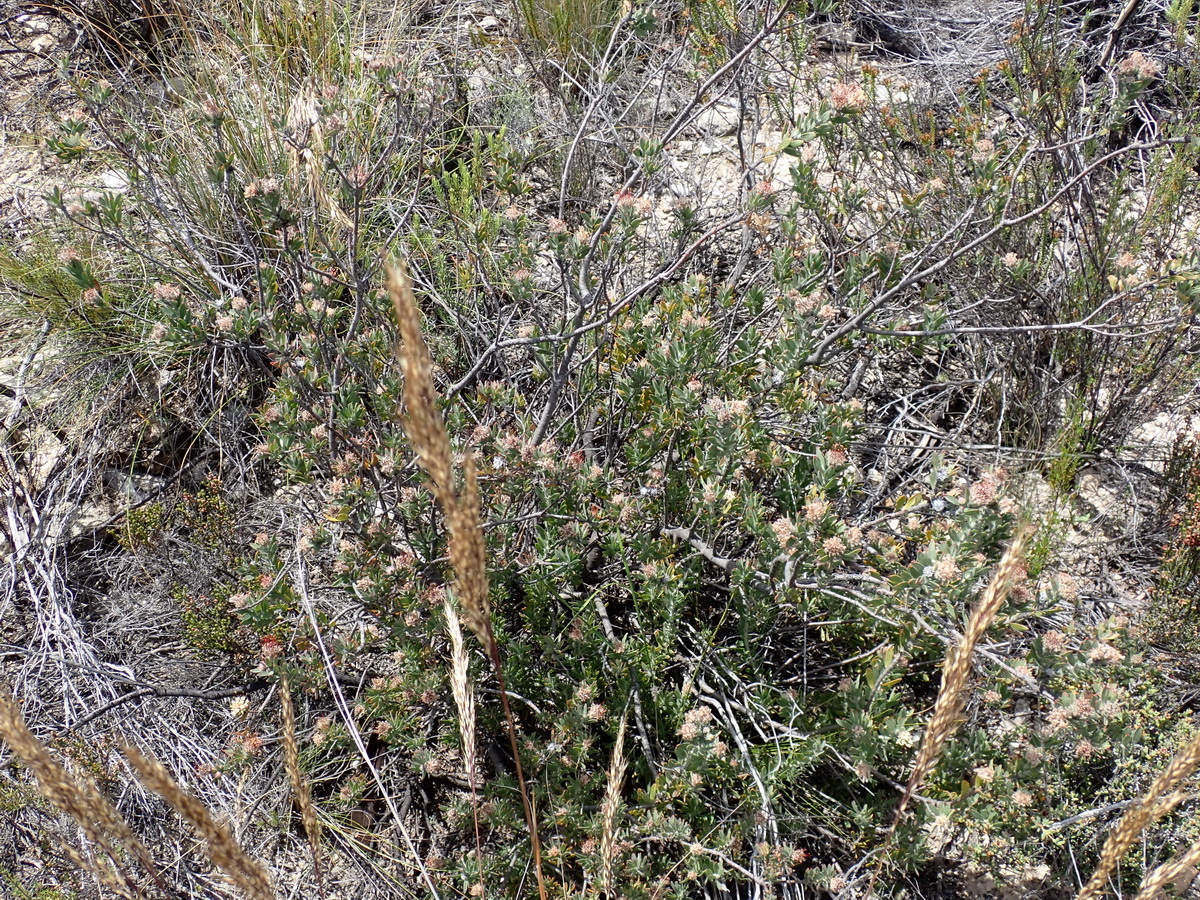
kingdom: Plantae
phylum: Tracheophyta
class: Magnoliopsida
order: Proteales
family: Proteaceae
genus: Leucospermum
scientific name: Leucospermum royenifolium
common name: Eastern pincushion
